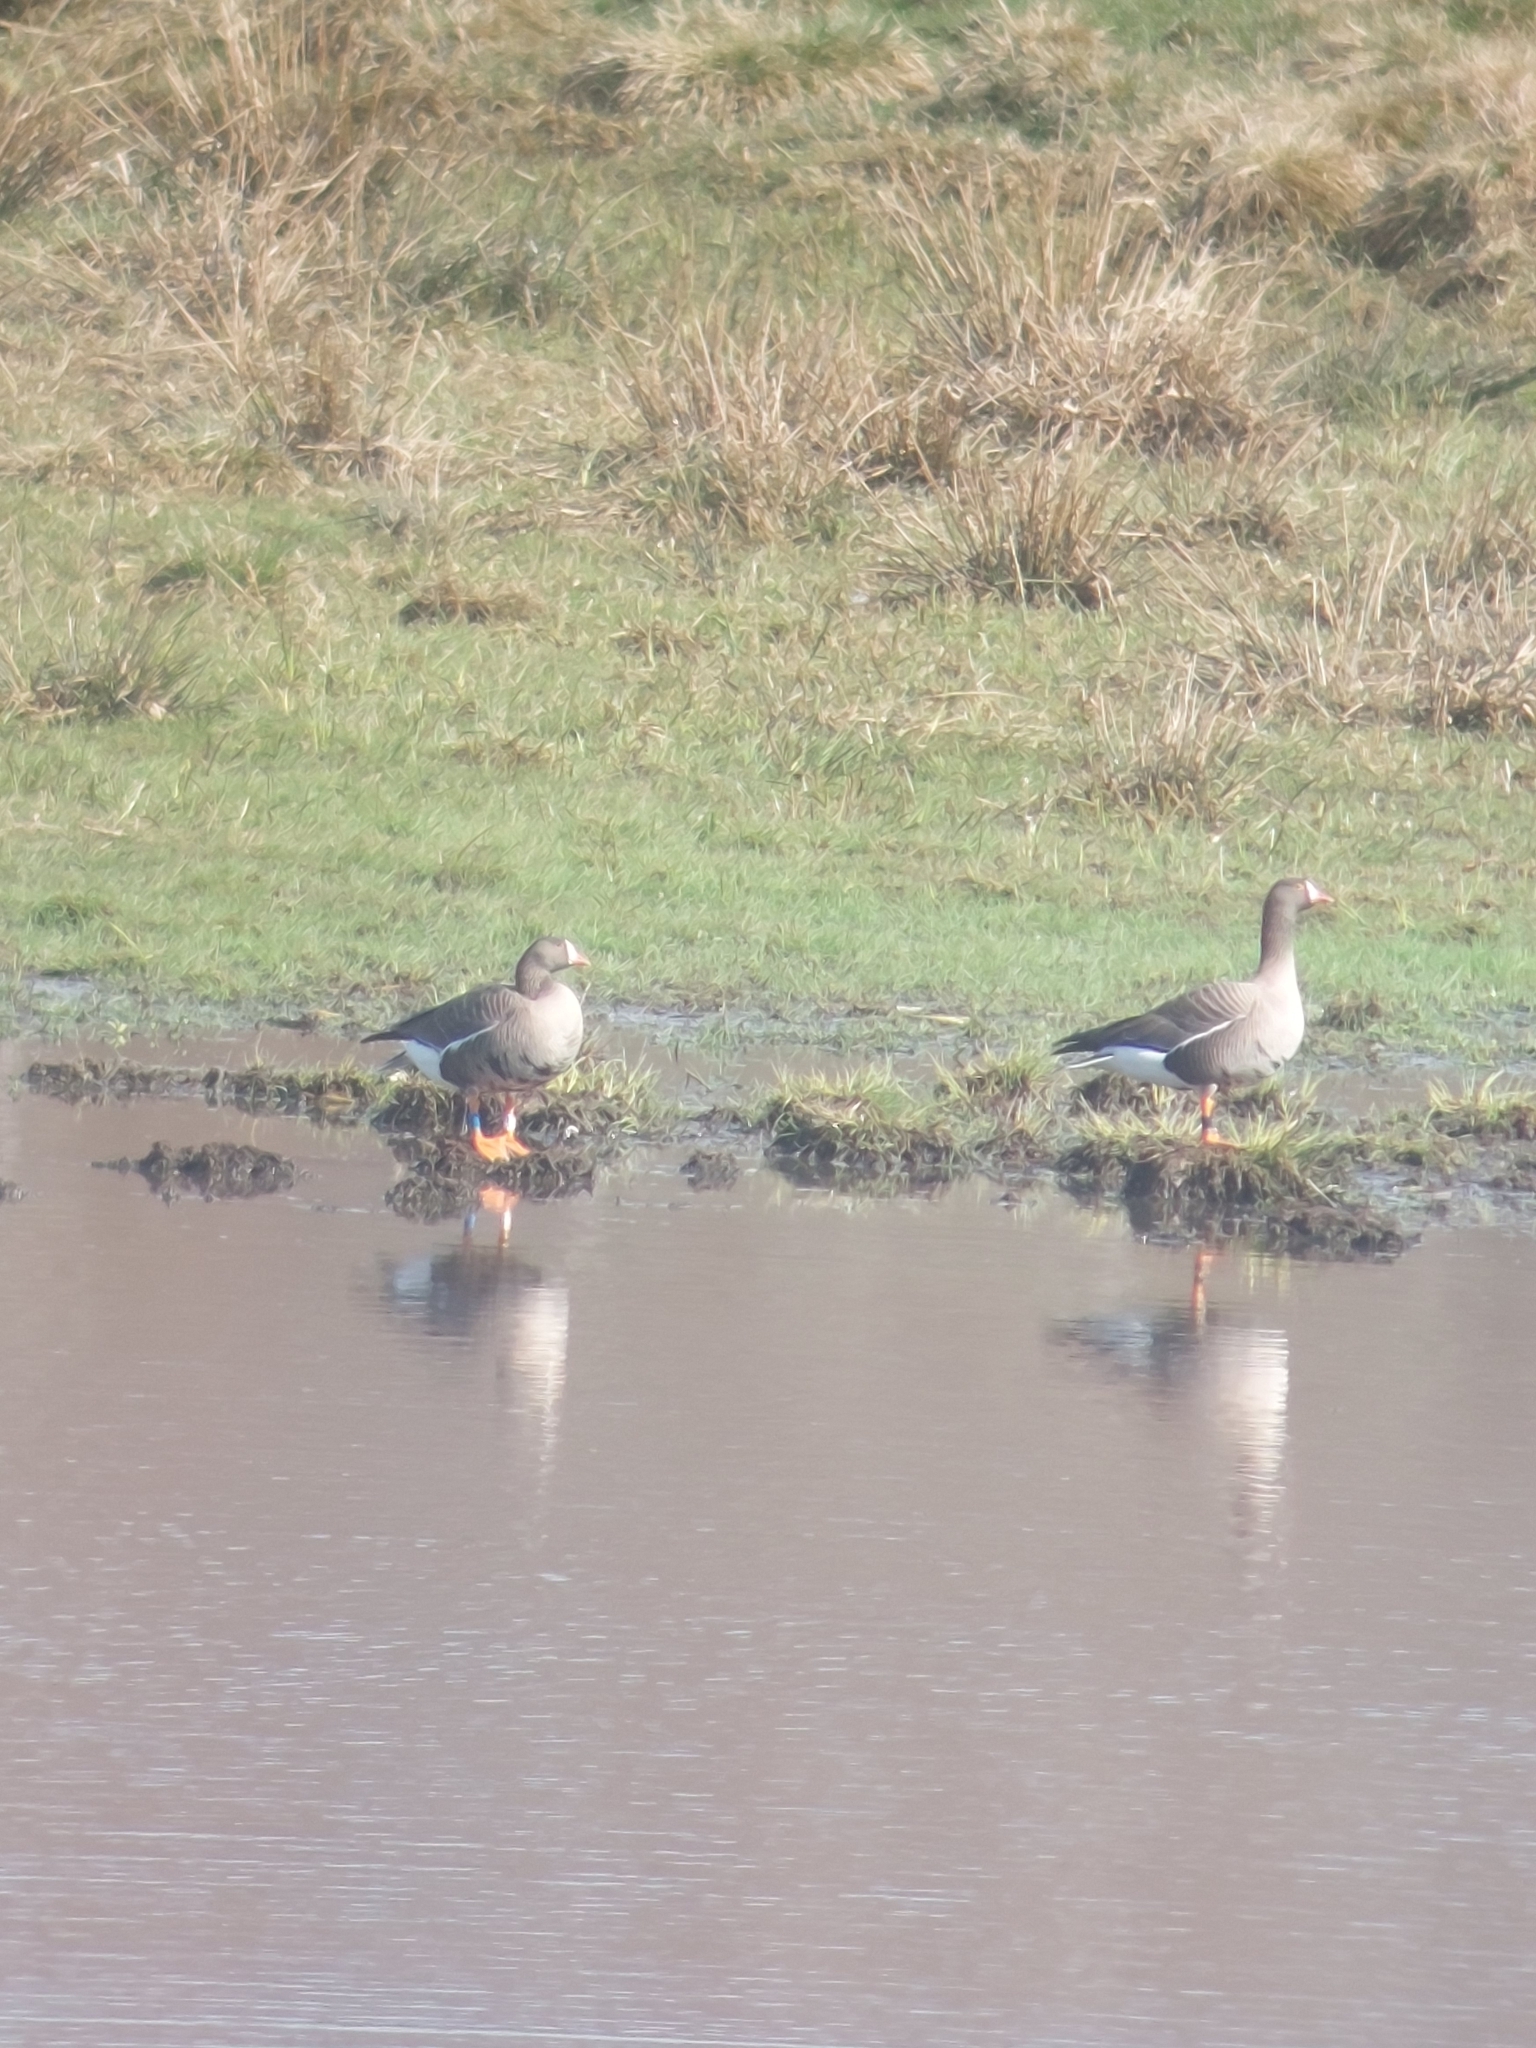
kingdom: Animalia
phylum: Chordata
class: Aves
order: Anseriformes
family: Anatidae
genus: Anser
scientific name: Anser erythropus
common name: Lesser white-fronted goose
